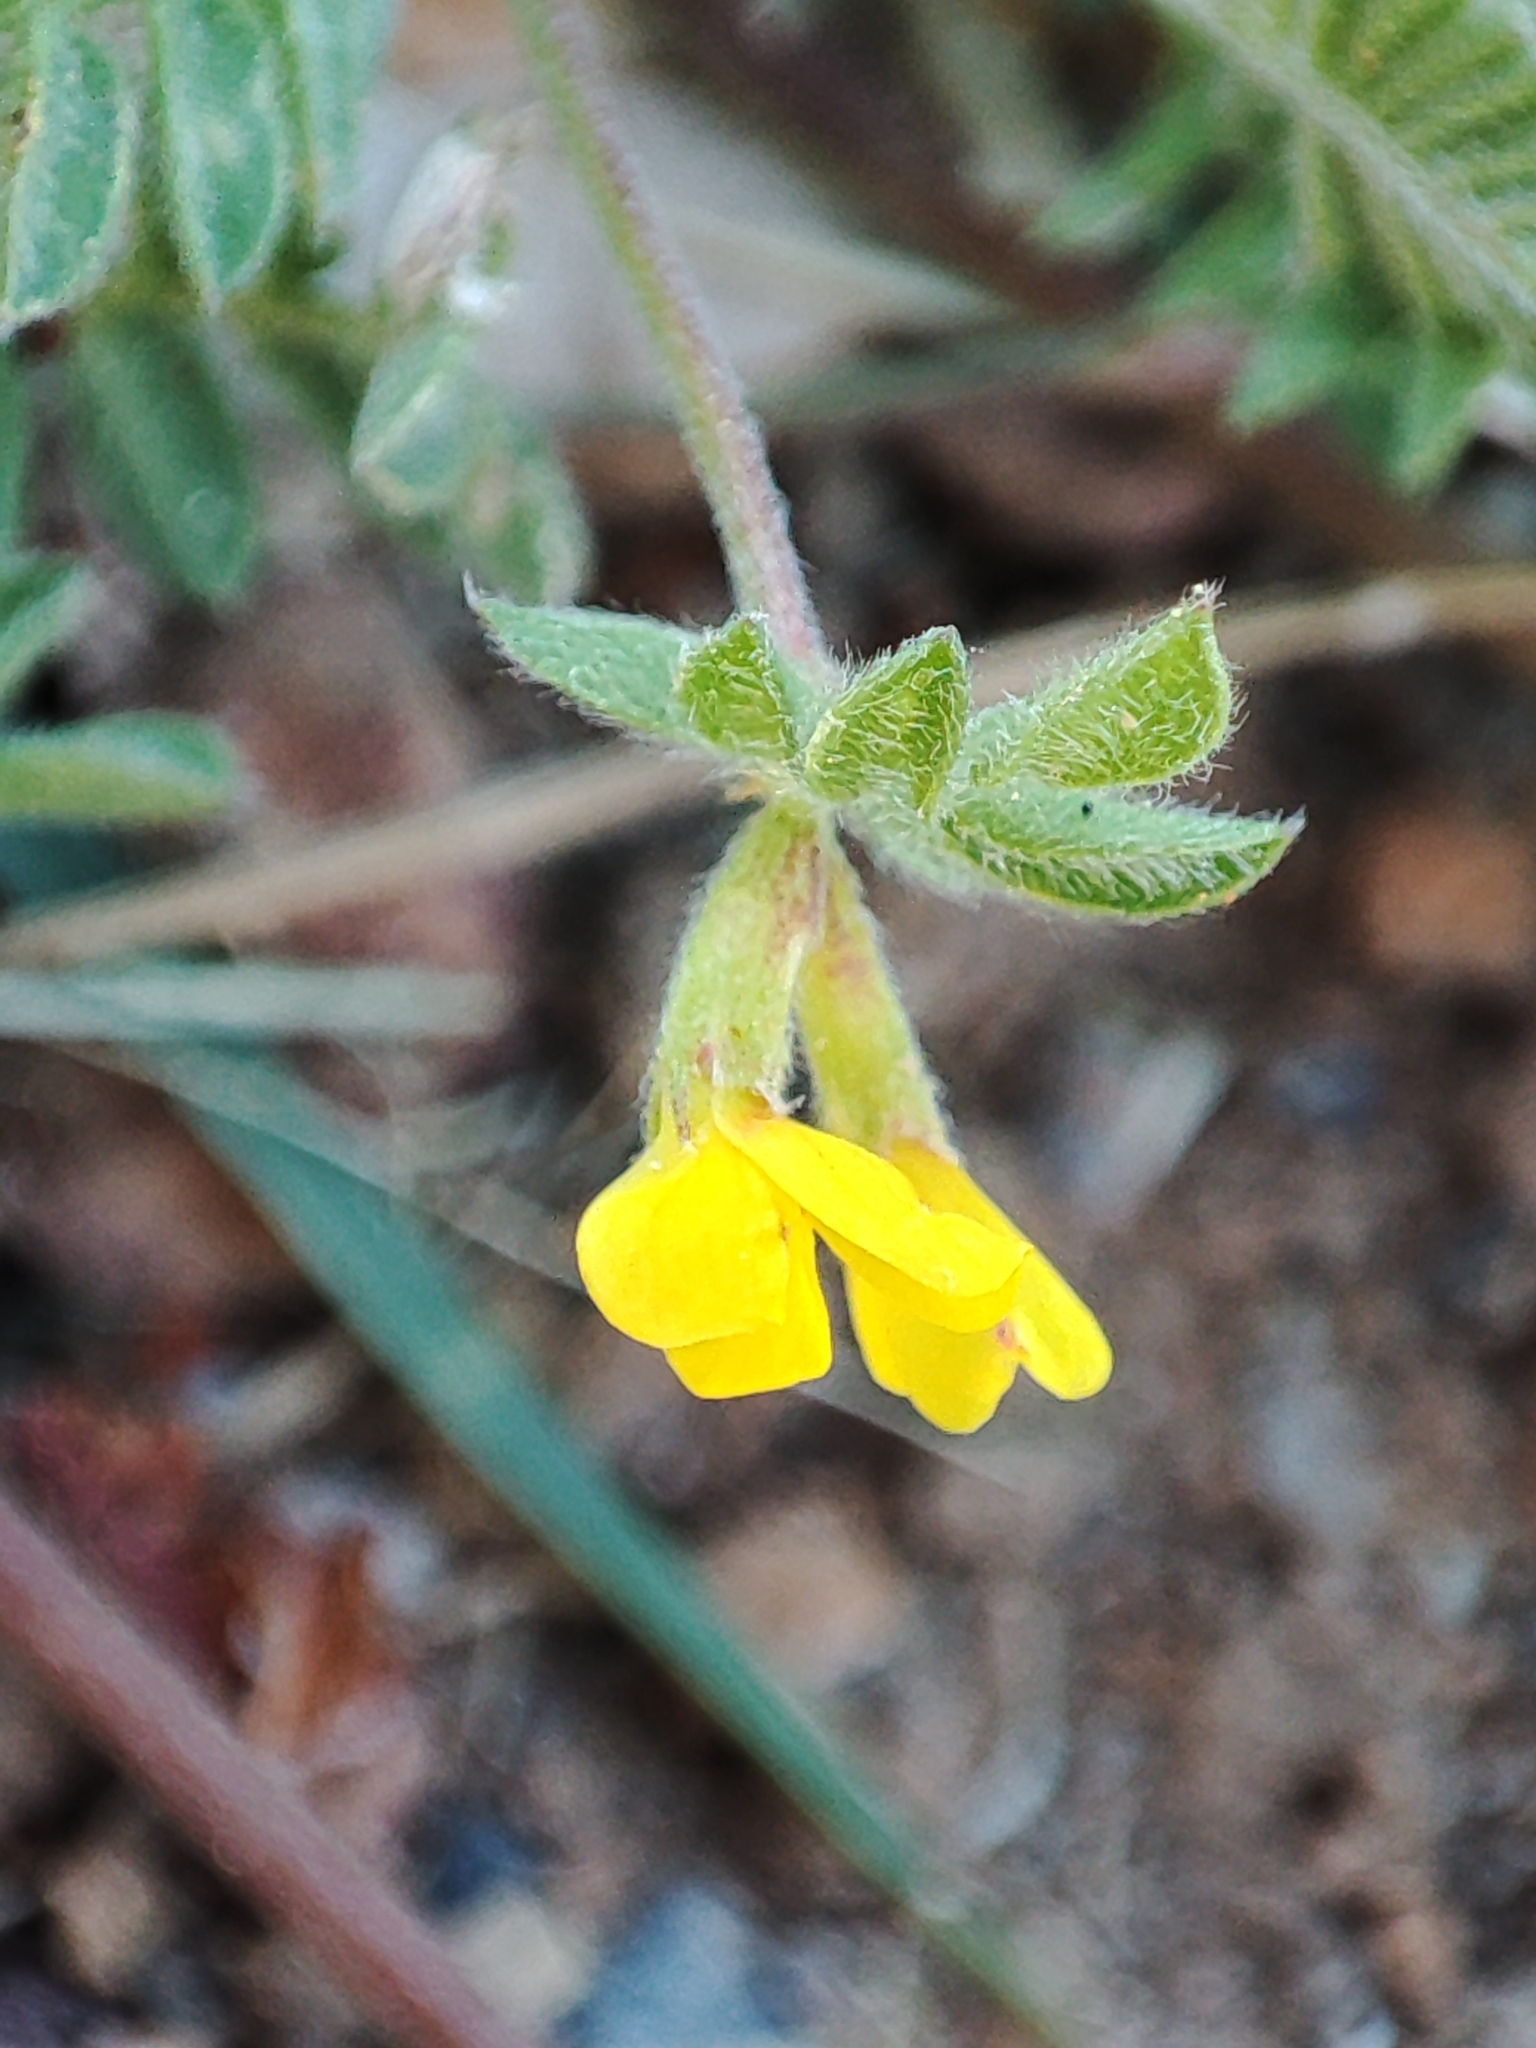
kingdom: Plantae
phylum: Tracheophyta
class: Magnoliopsida
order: Fabales
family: Fabaceae
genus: Ornithopus
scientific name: Ornithopus compressus
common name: Yellow serradella
